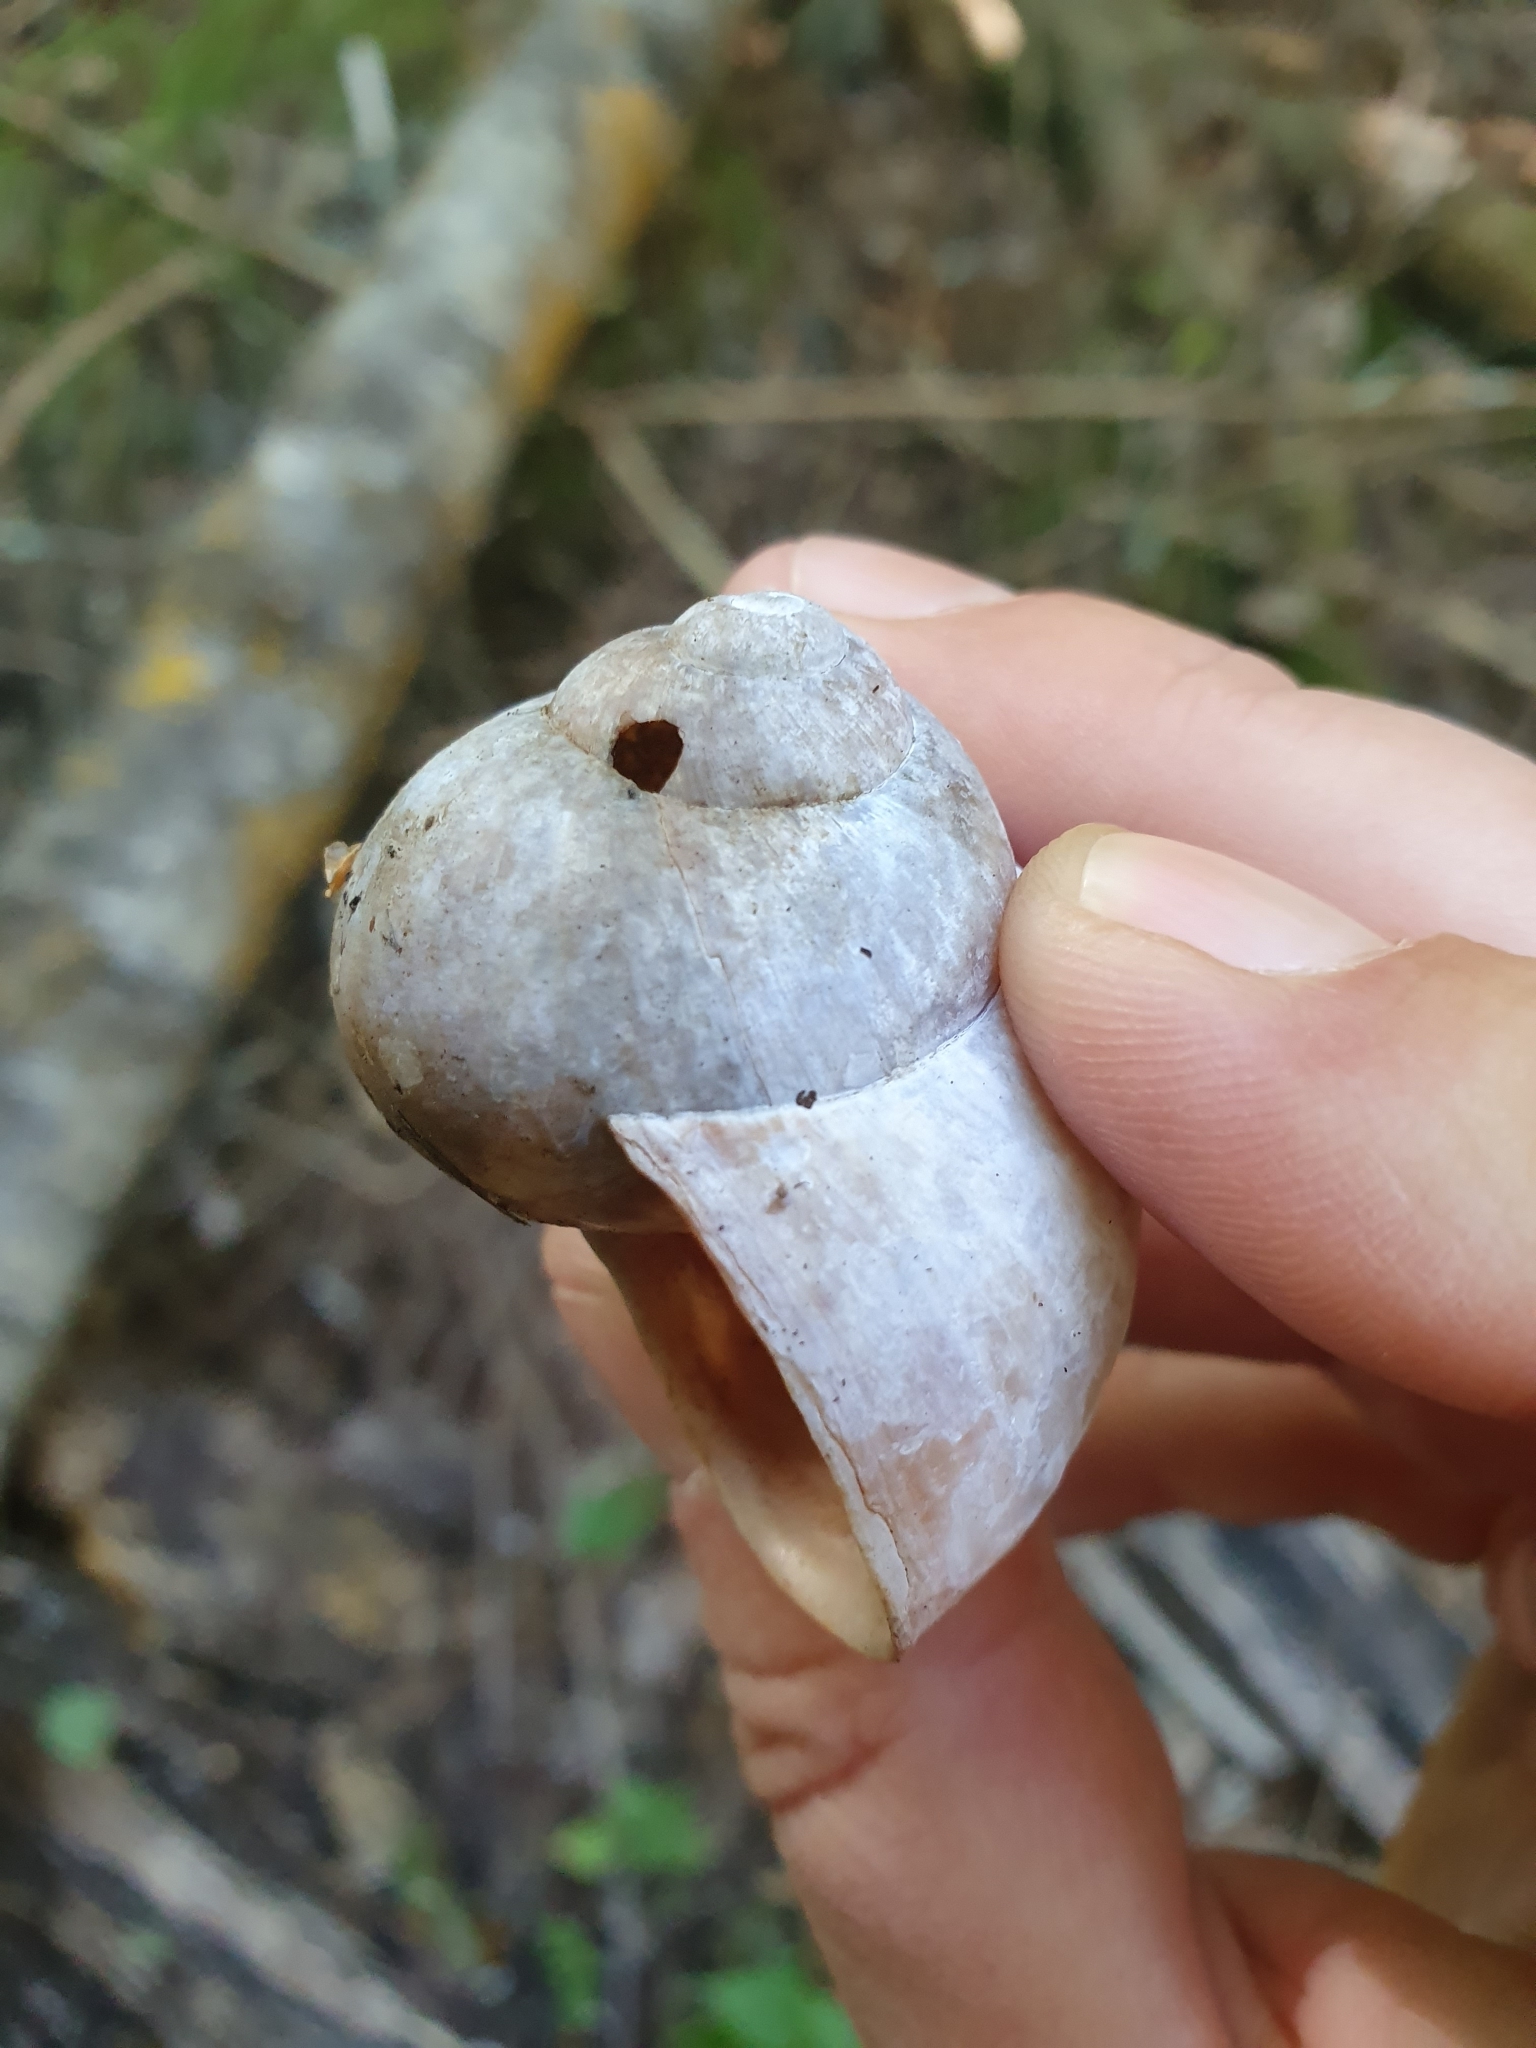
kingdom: Animalia
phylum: Mollusca
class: Gastropoda
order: Stylommatophora
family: Helicidae
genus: Helix
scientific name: Helix pomatia
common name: Roman snail
